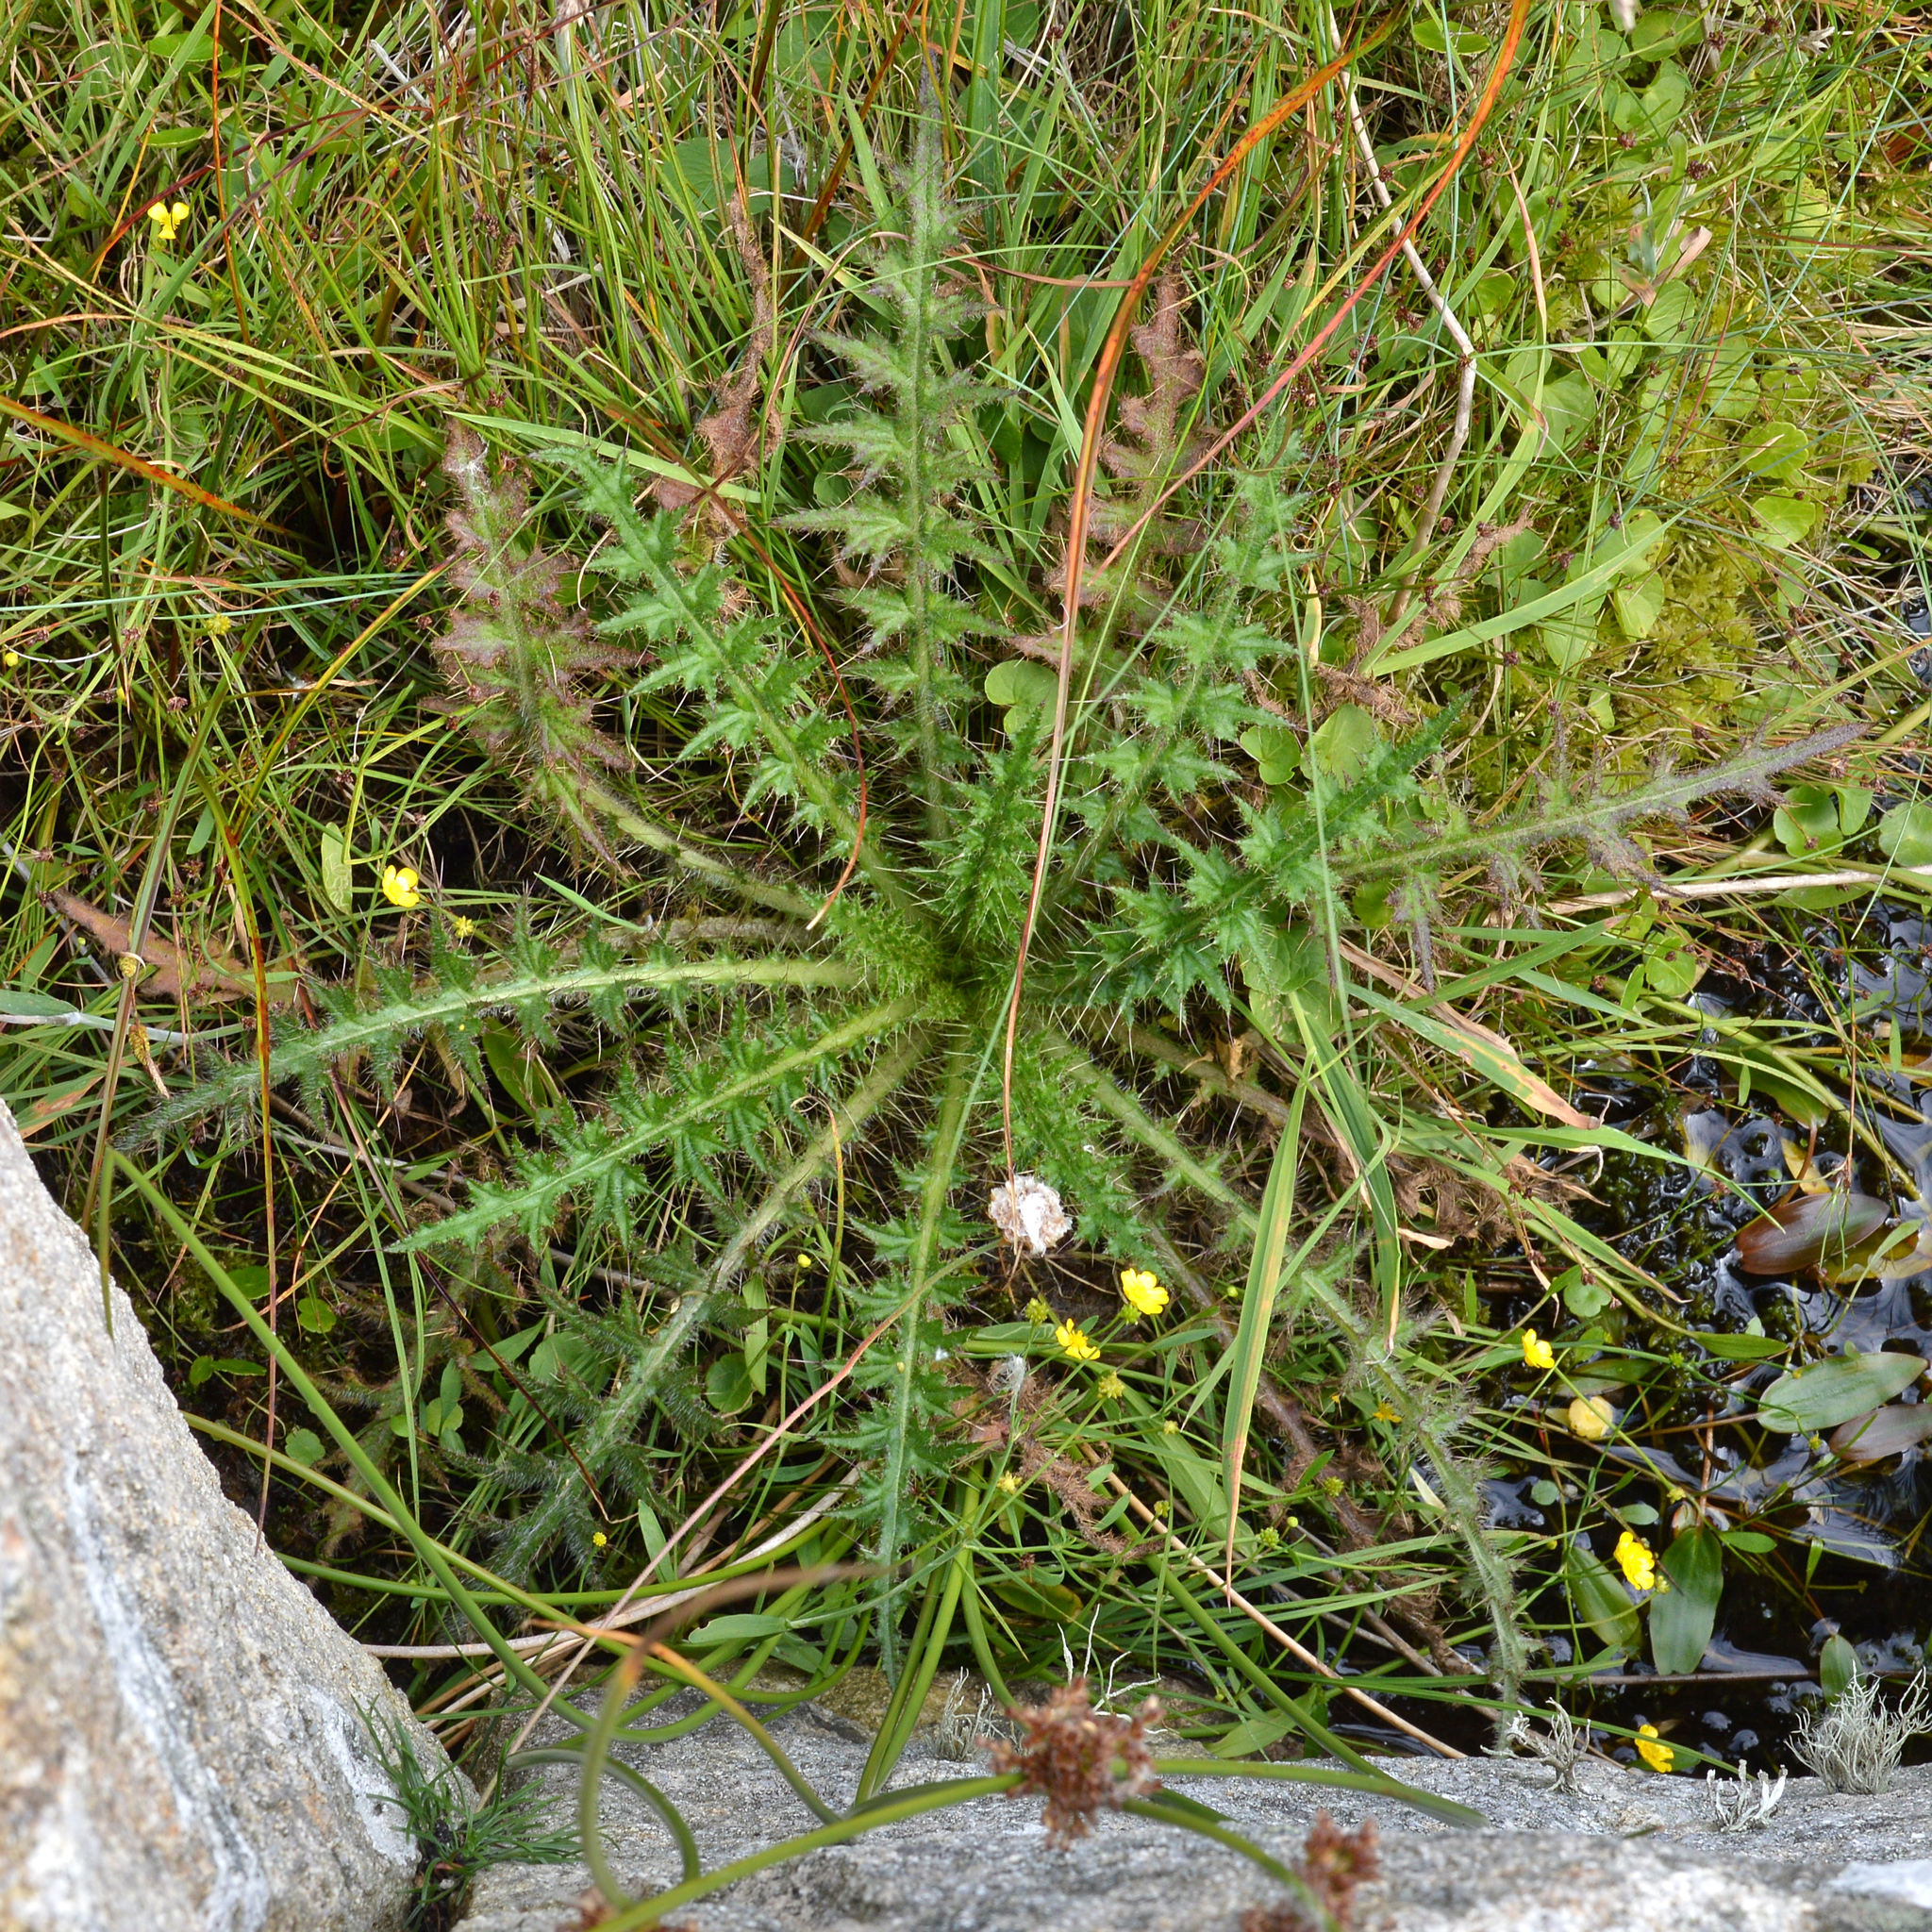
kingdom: Plantae
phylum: Tracheophyta
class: Magnoliopsida
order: Asterales
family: Asteraceae
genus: Cirsium
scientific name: Cirsium palustre
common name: Marsh thistle
